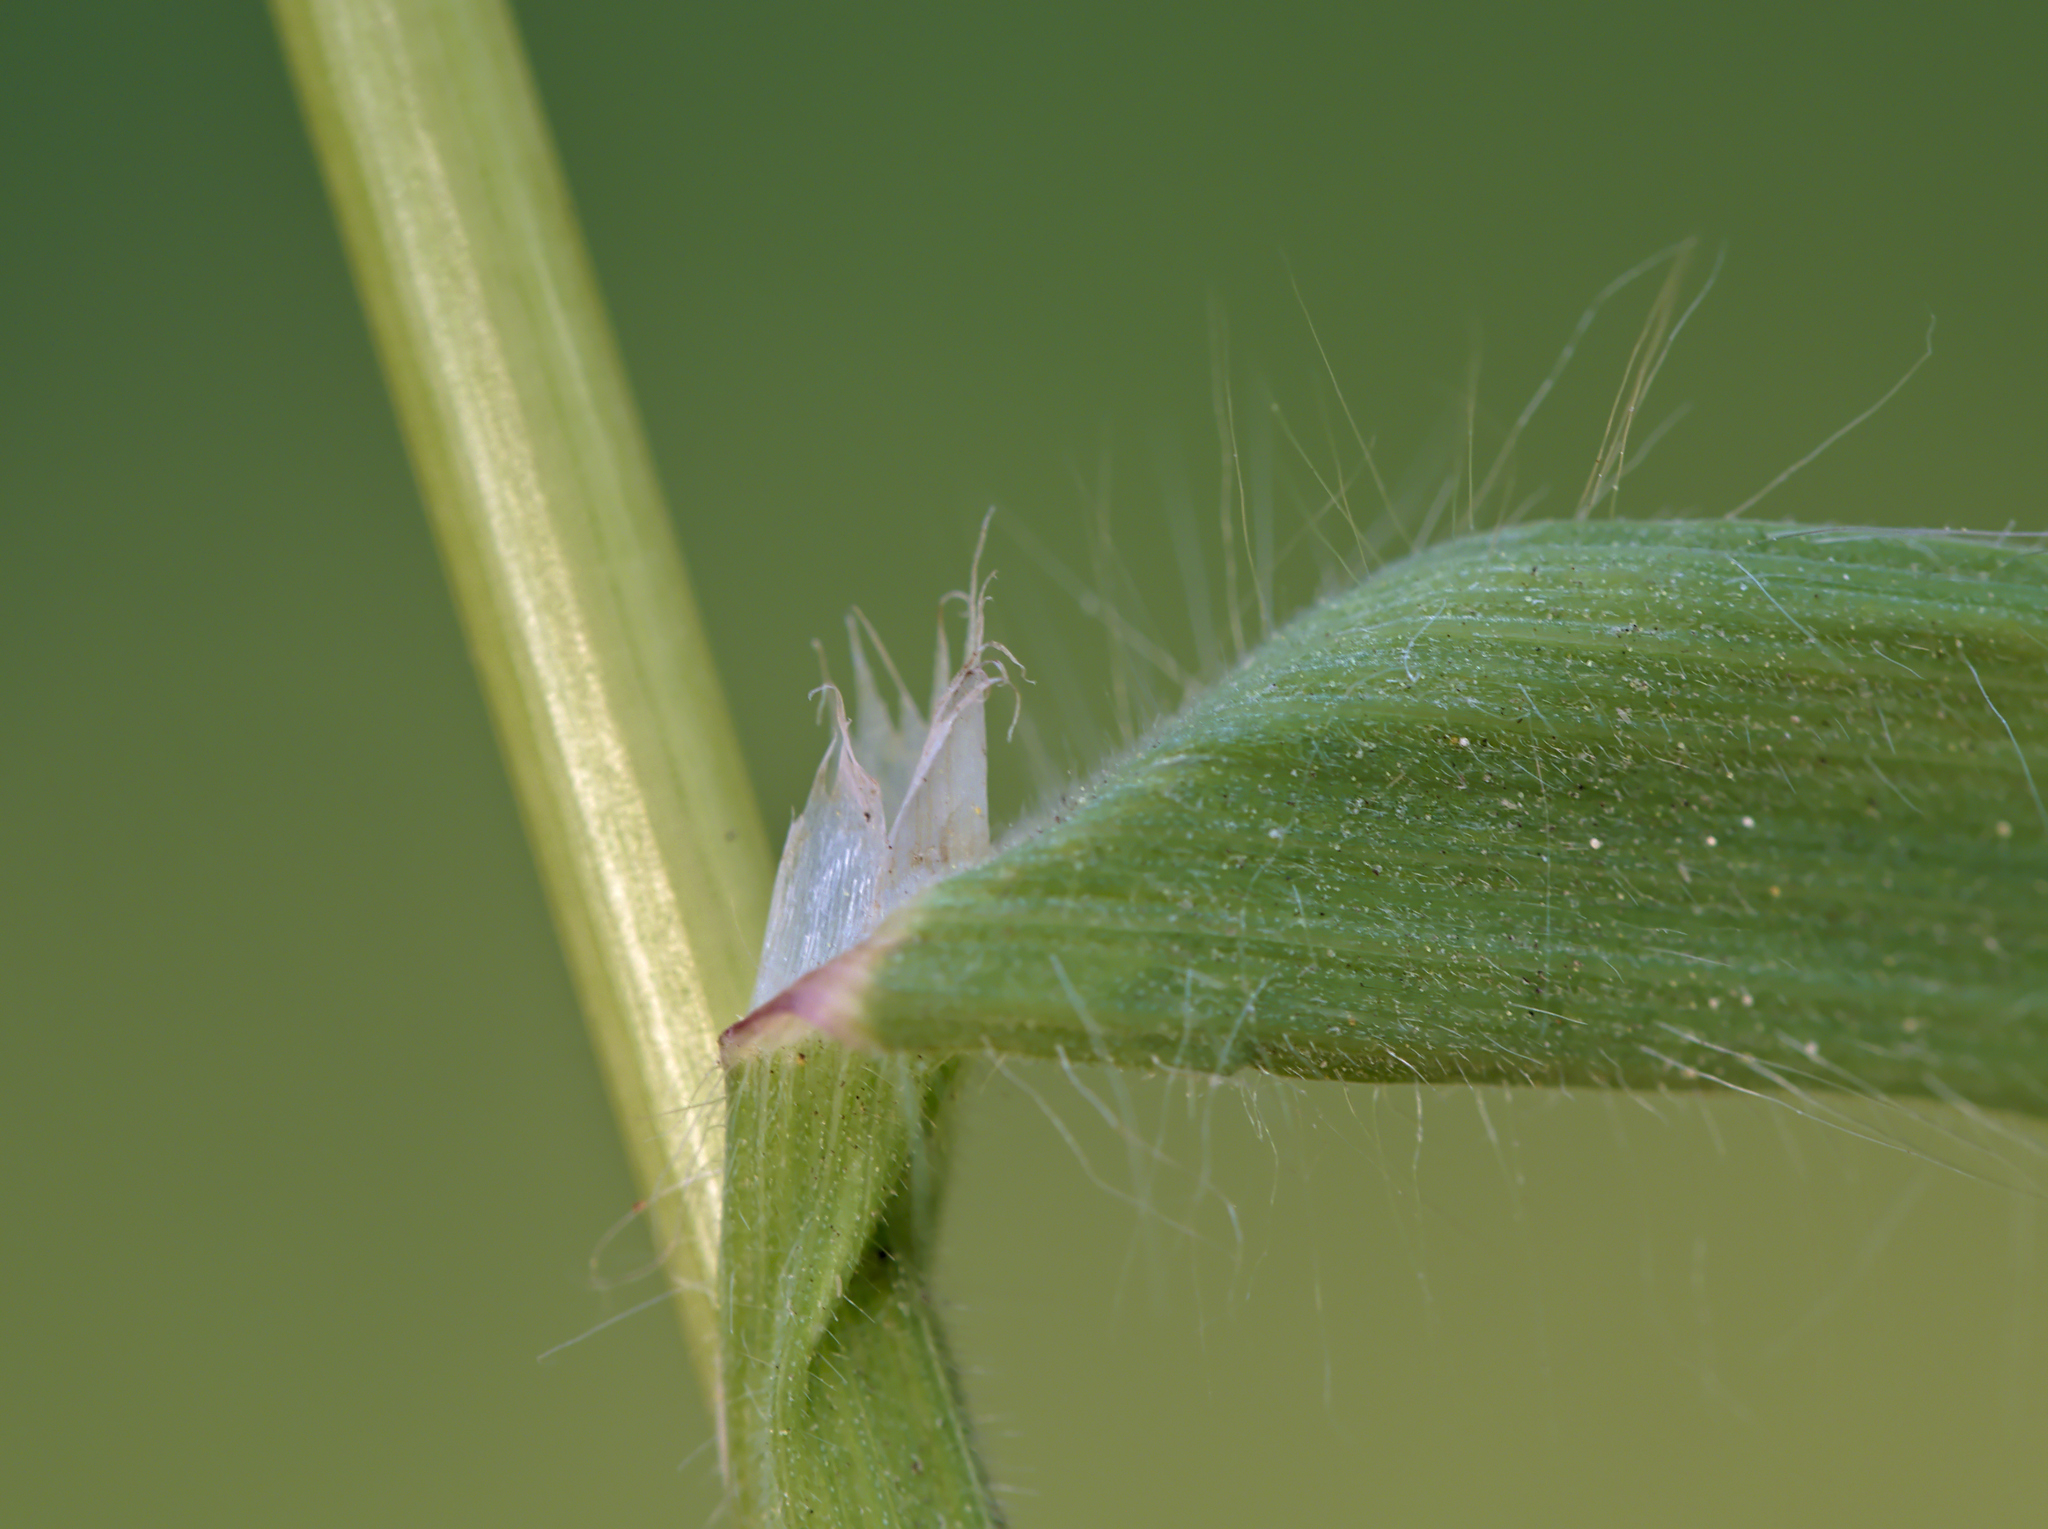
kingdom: Plantae
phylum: Tracheophyta
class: Liliopsida
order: Poales
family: Poaceae
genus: Bromus
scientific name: Bromus sterilis
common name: Poverty brome
